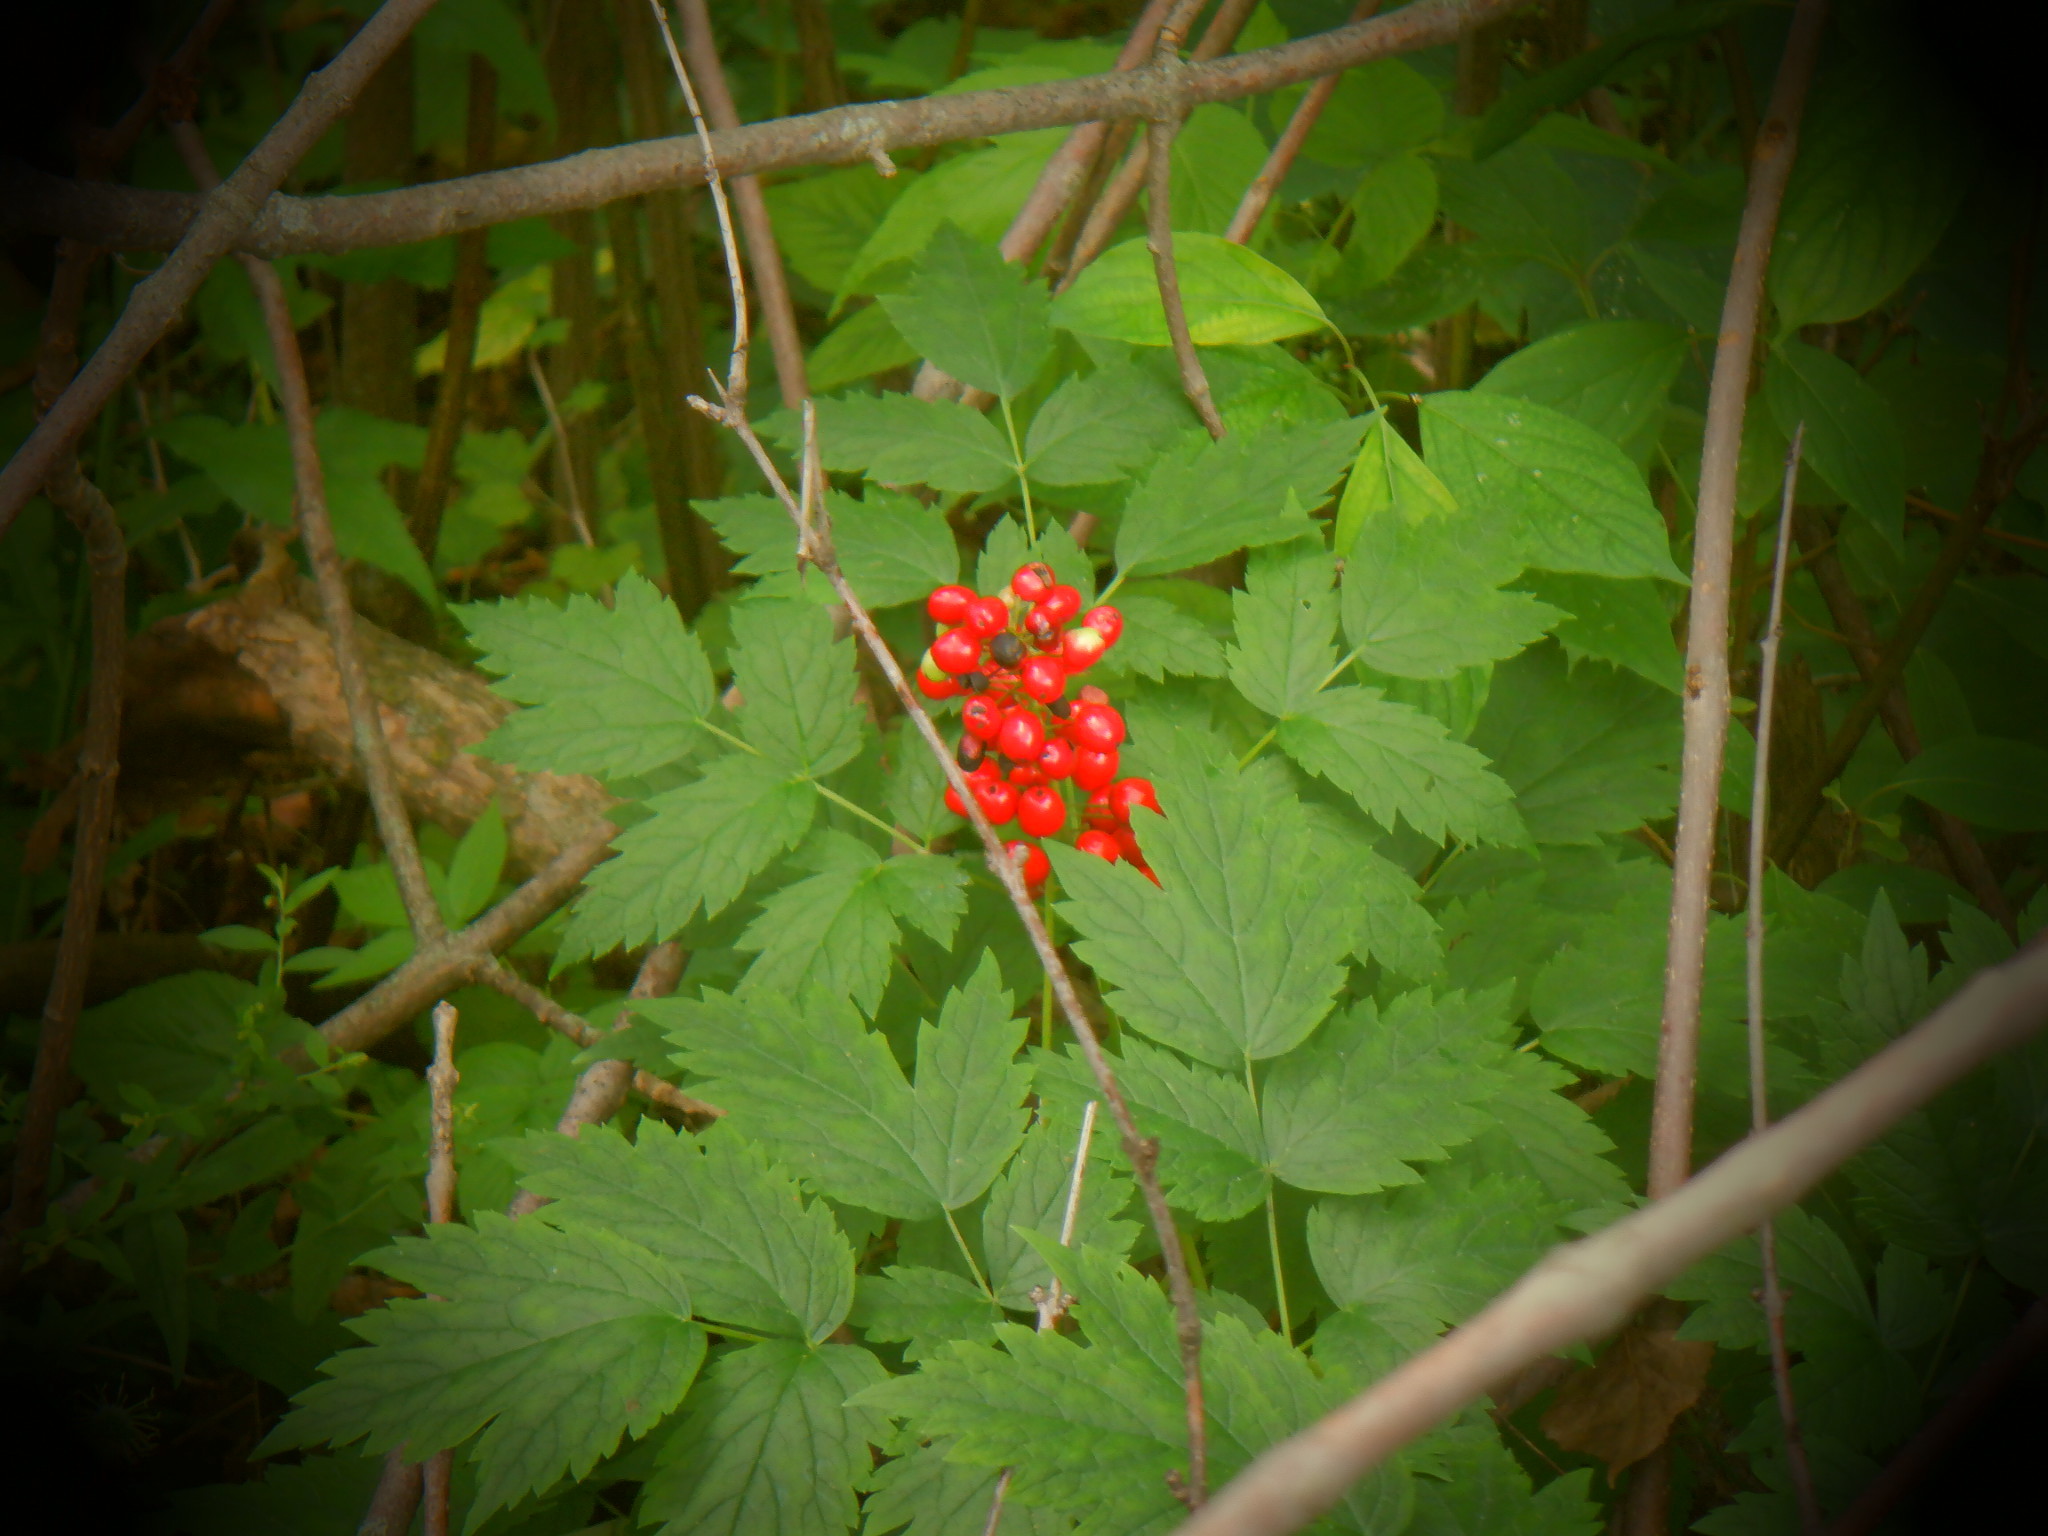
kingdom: Plantae
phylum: Tracheophyta
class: Magnoliopsida
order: Ranunculales
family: Ranunculaceae
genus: Actaea
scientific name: Actaea rubra
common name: Red baneberry
